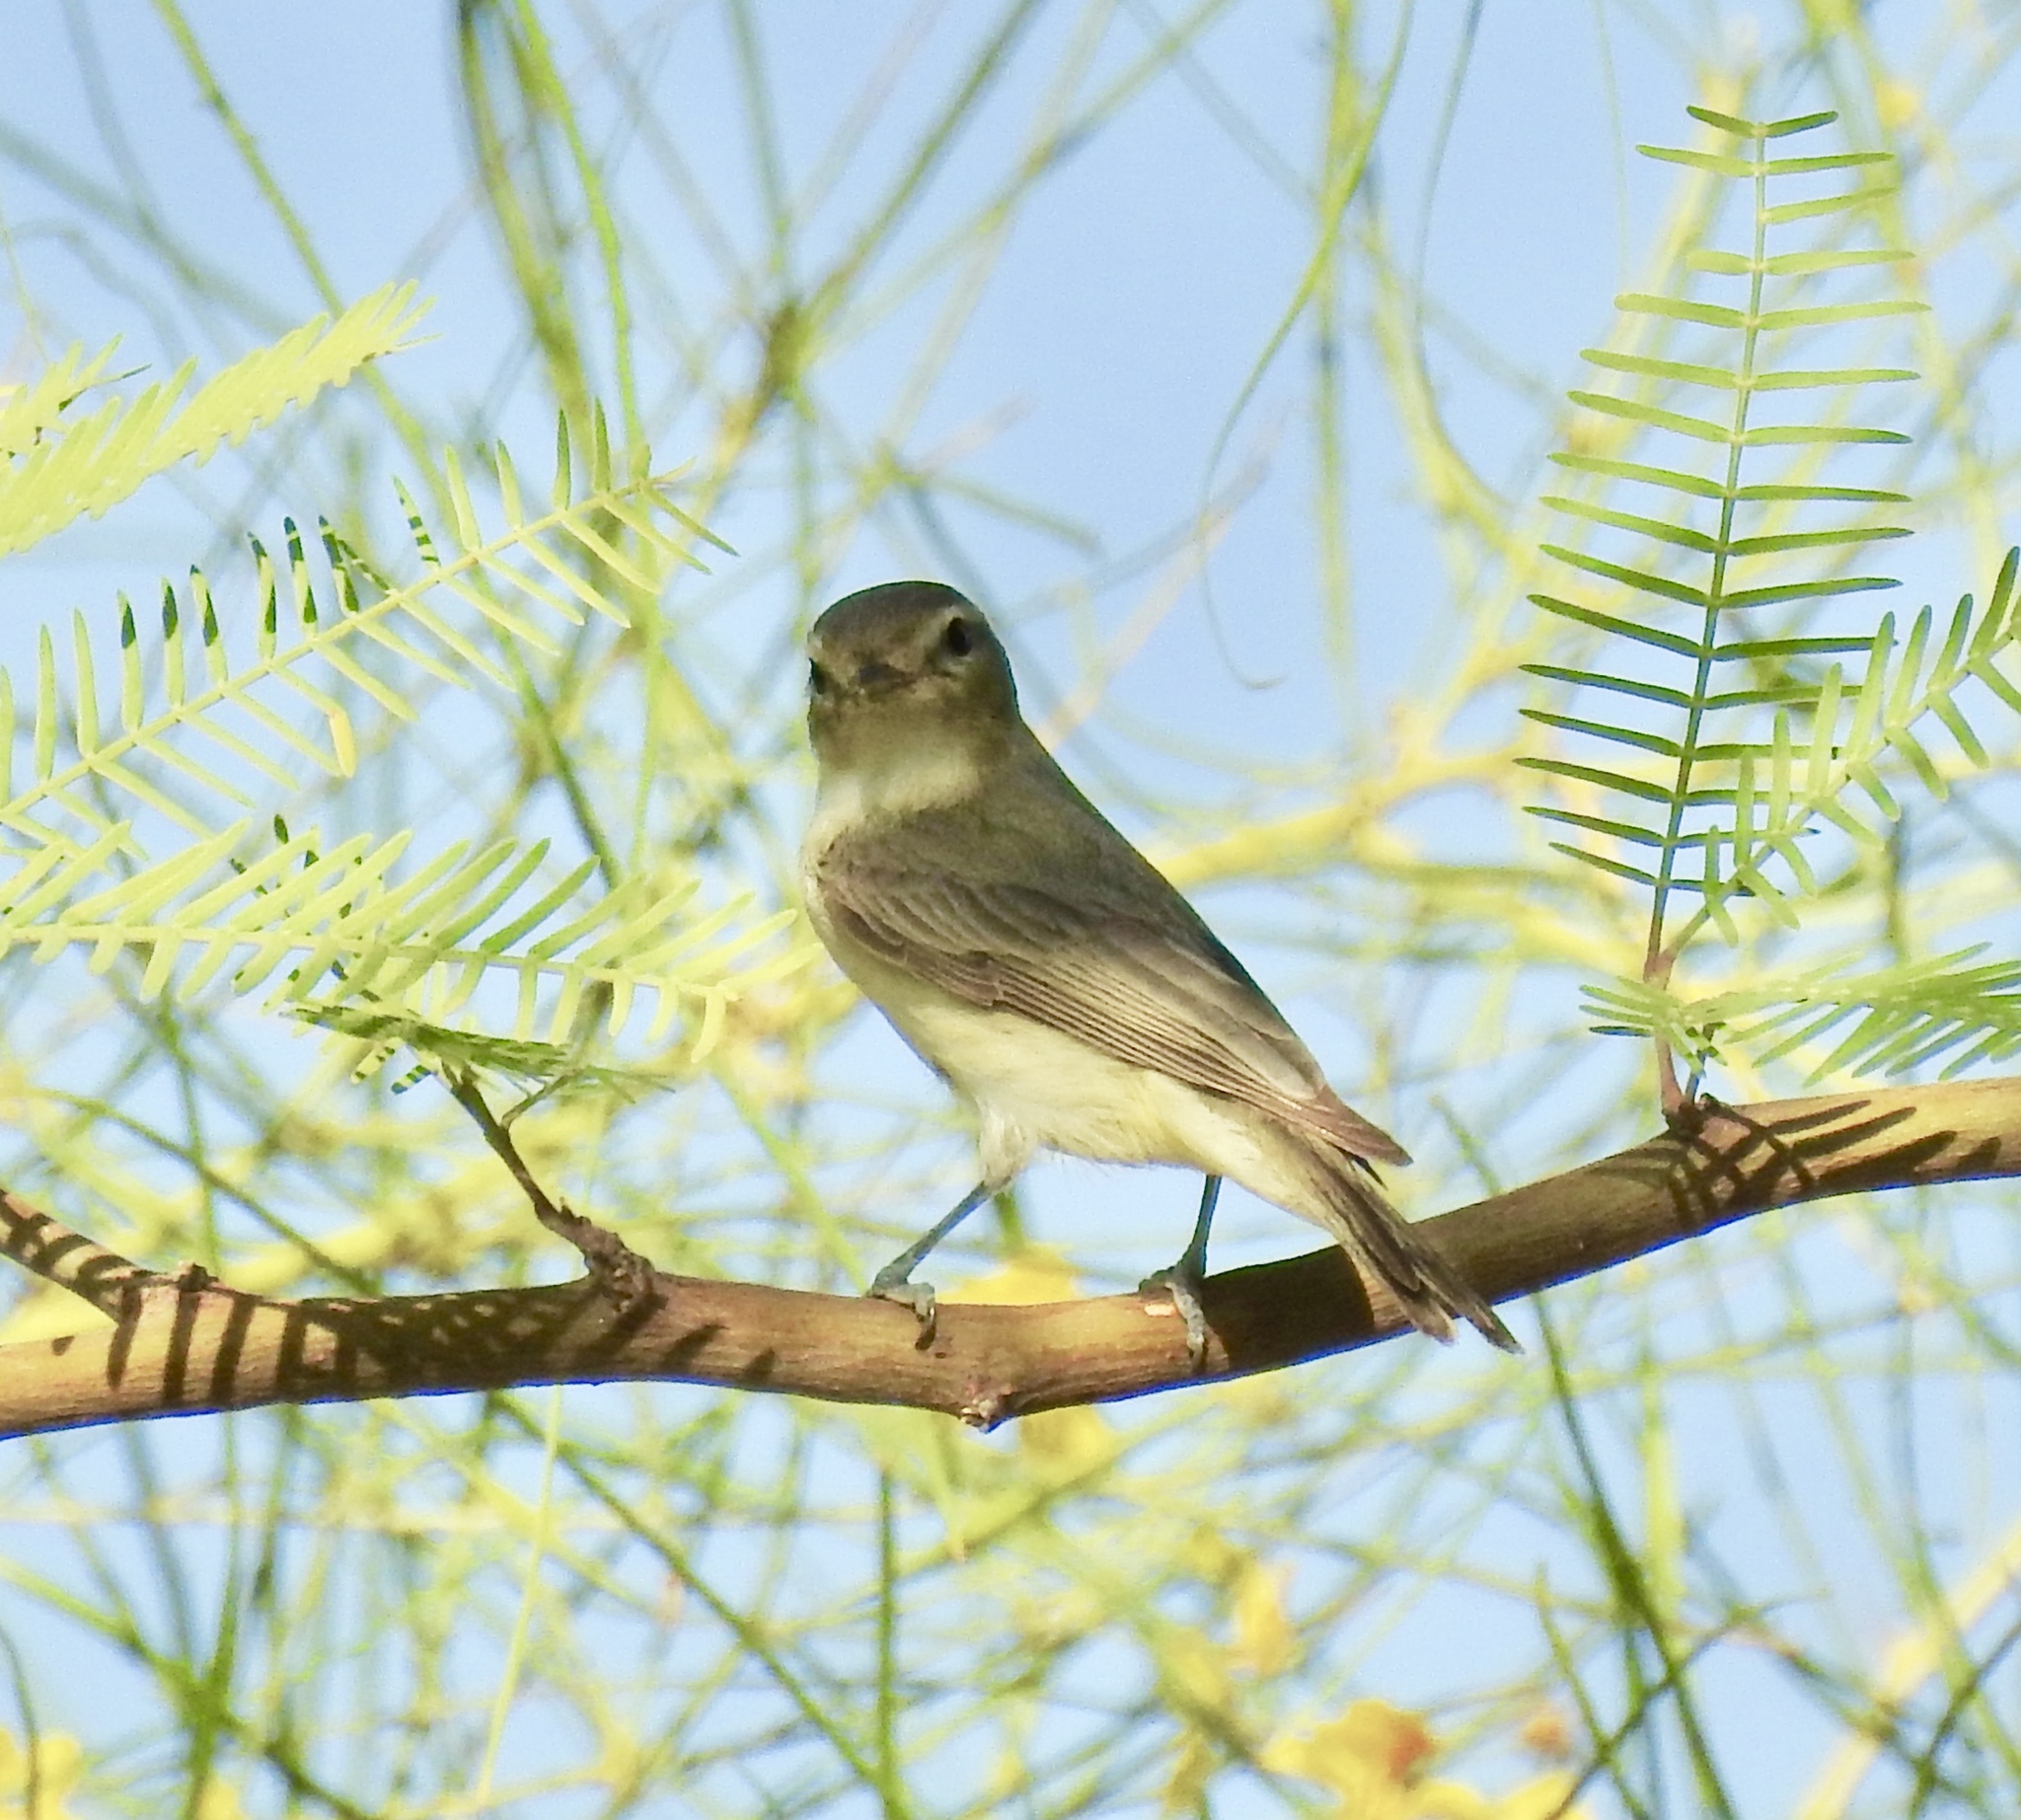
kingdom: Animalia
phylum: Chordata
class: Aves
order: Passeriformes
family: Vireonidae
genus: Vireo
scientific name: Vireo gilvus
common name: Warbling vireo
